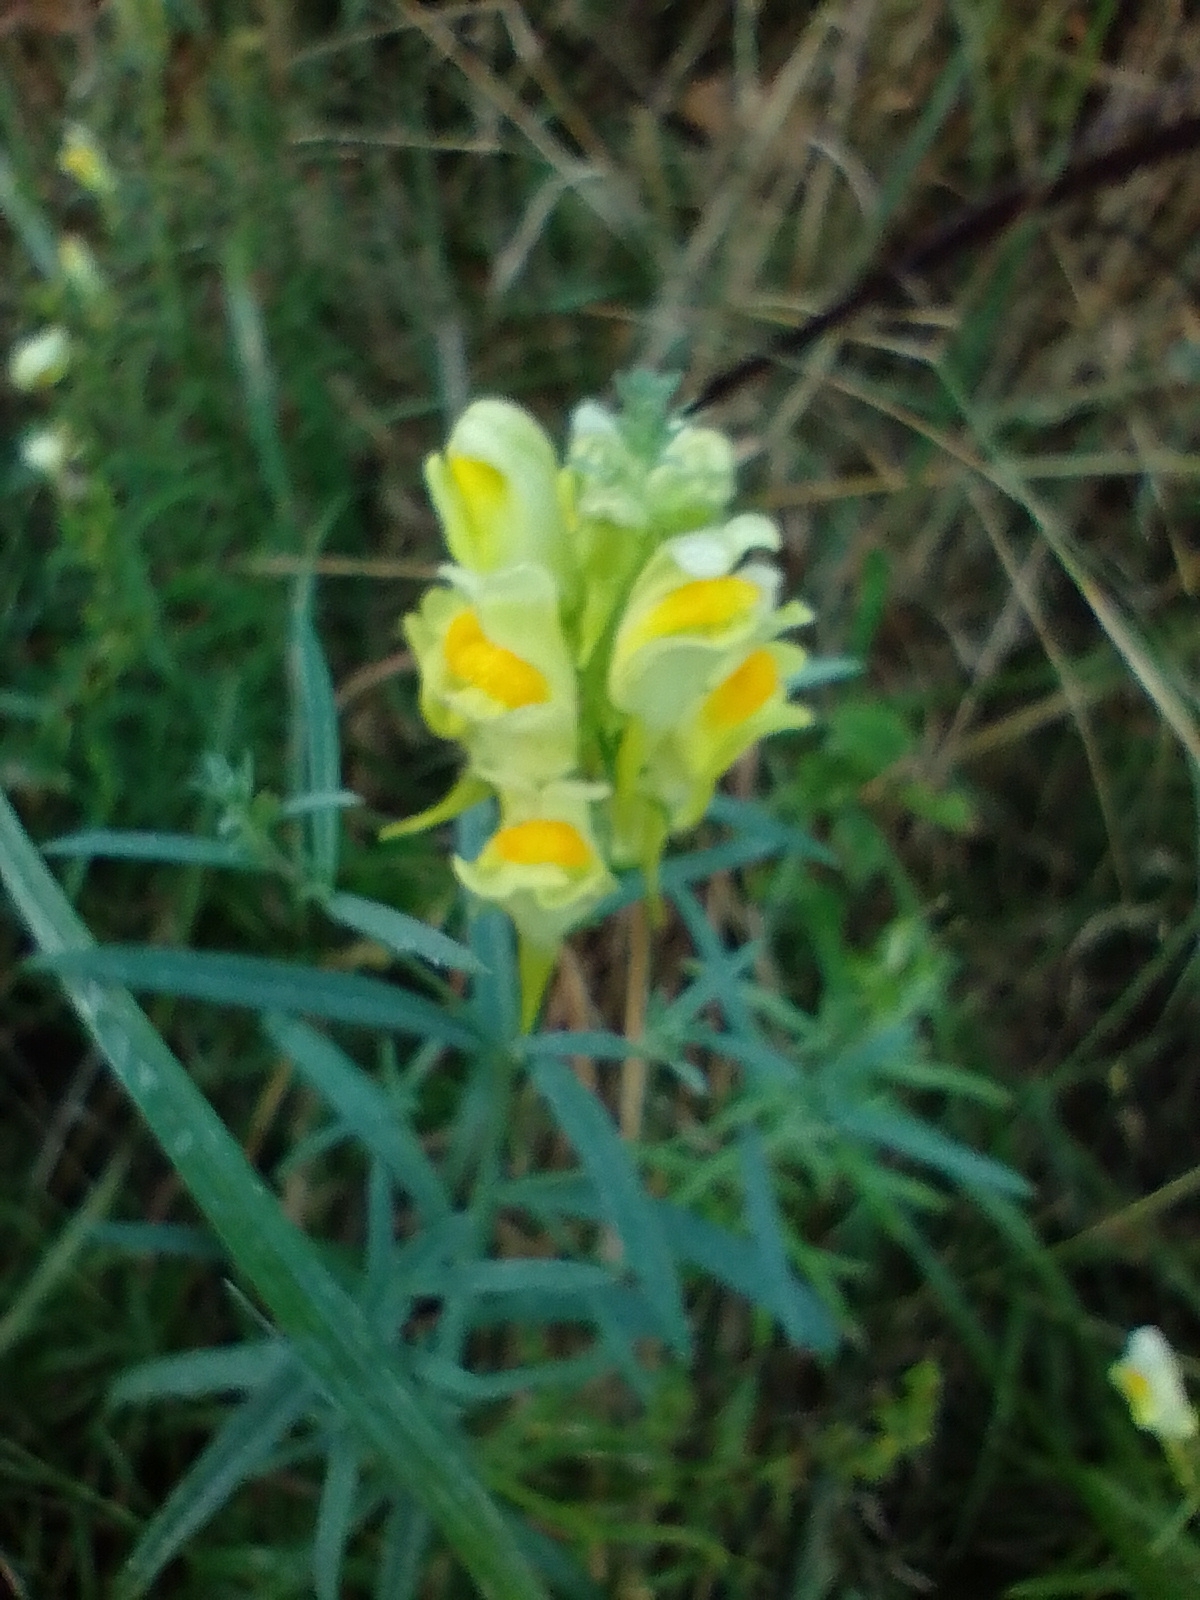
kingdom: Plantae
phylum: Tracheophyta
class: Magnoliopsida
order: Lamiales
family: Plantaginaceae
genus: Linaria
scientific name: Linaria vulgaris
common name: Butter and eggs
